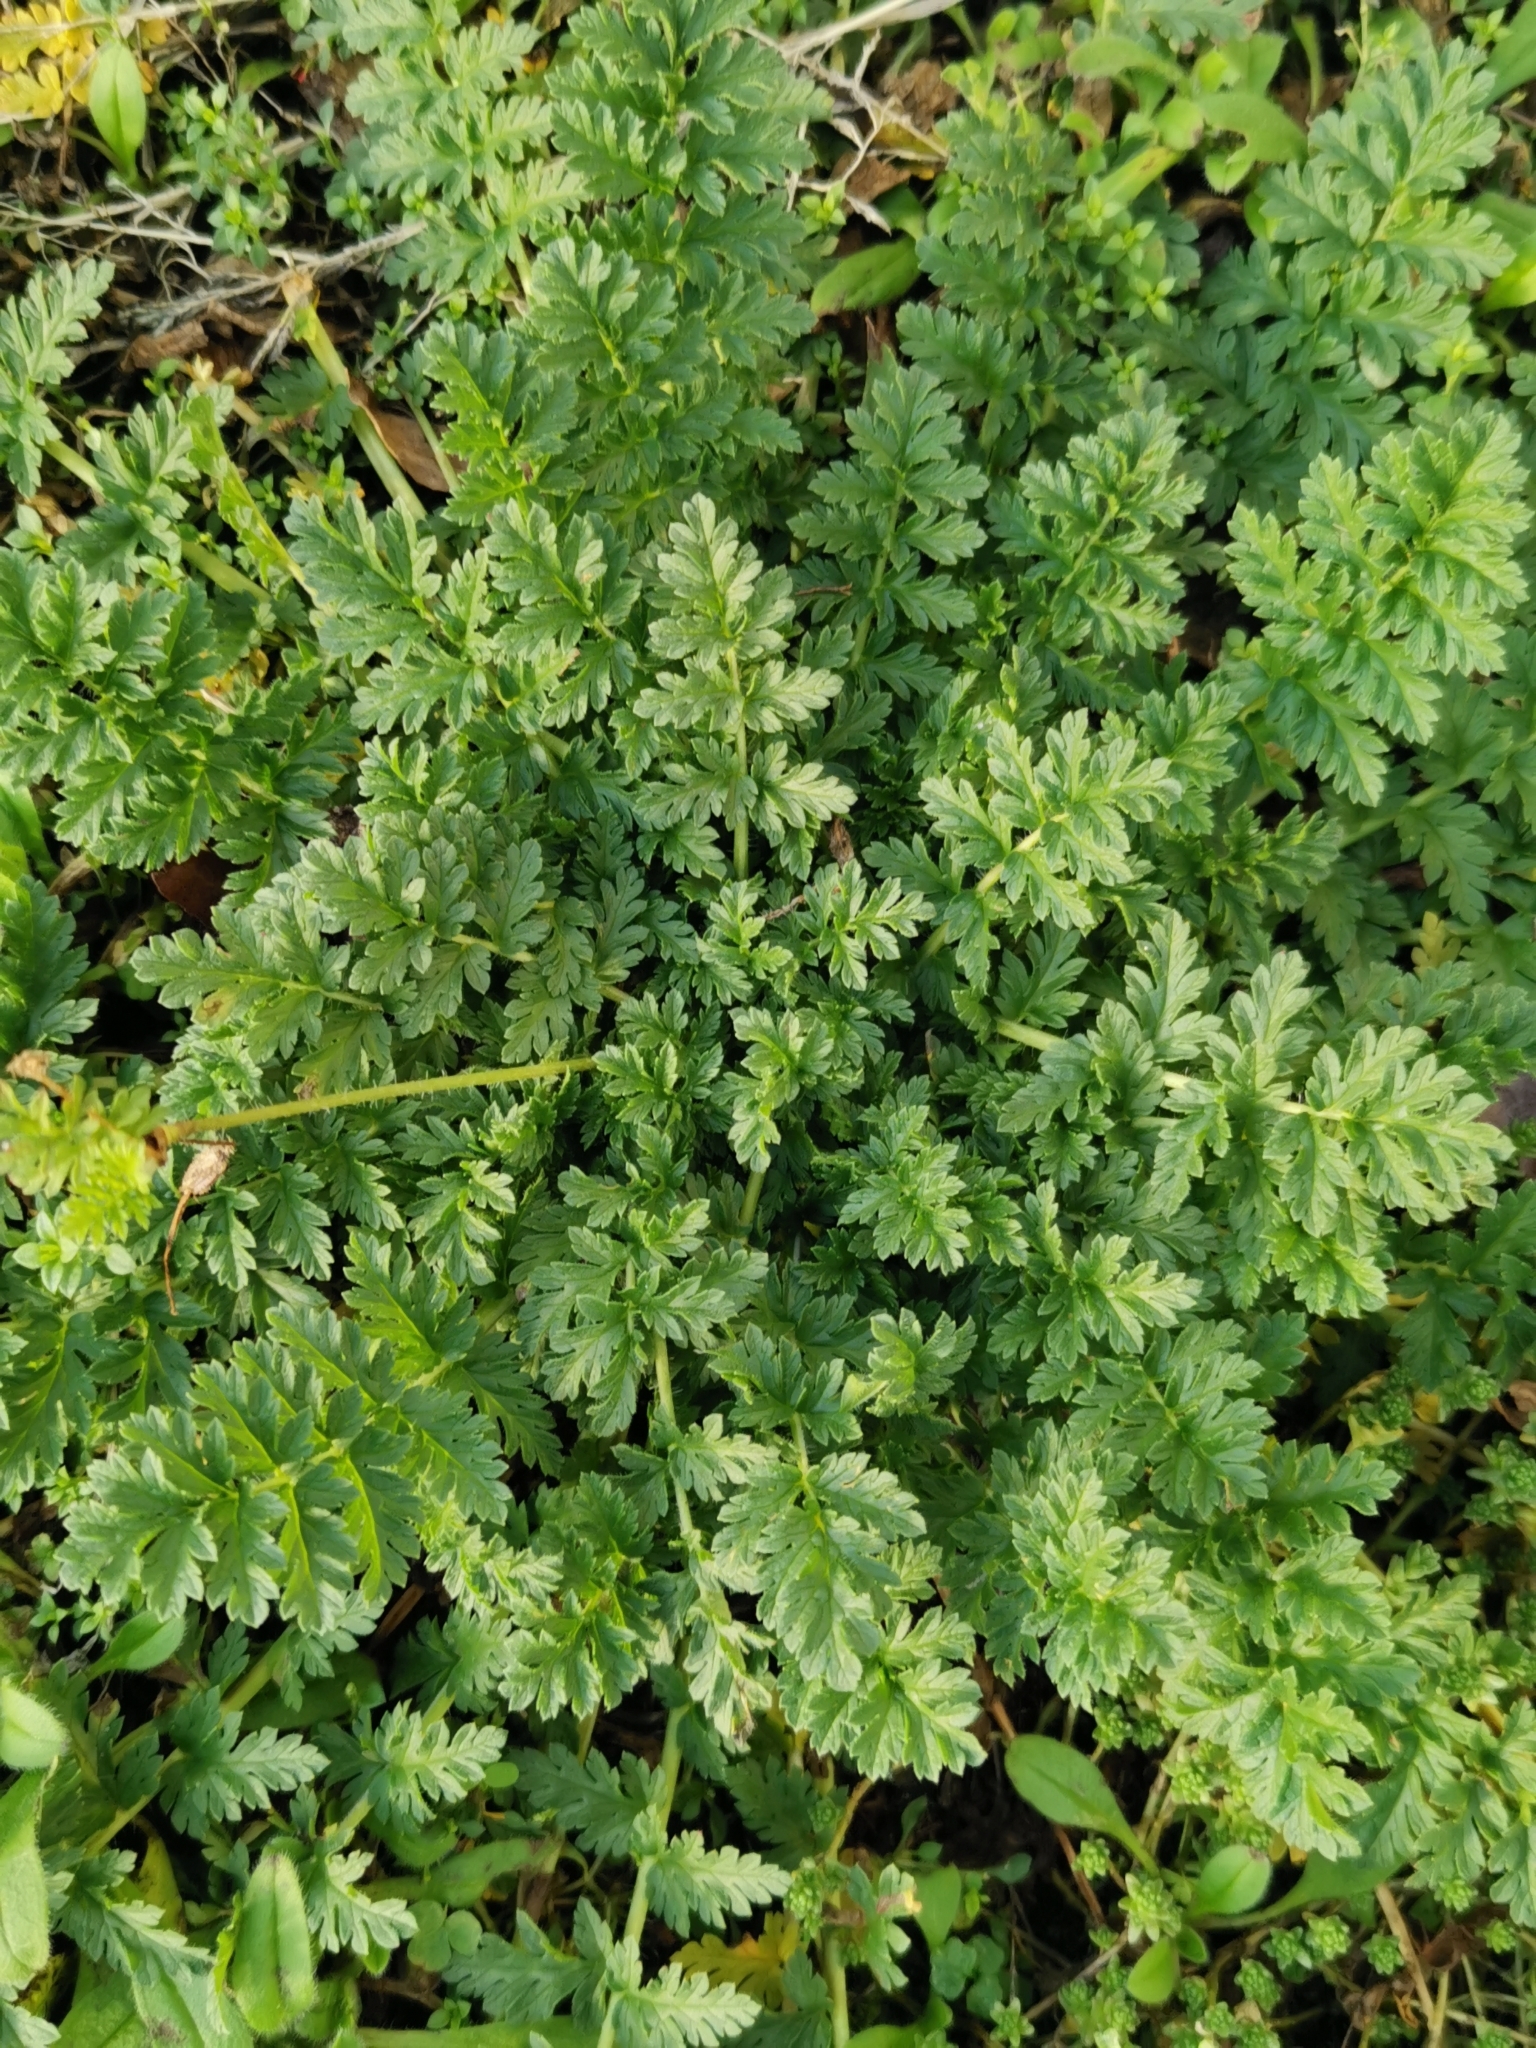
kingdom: Plantae
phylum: Tracheophyta
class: Magnoliopsida
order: Geraniales
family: Geraniaceae
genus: Erodium
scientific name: Erodium cicutarium
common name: Common stork's-bill
